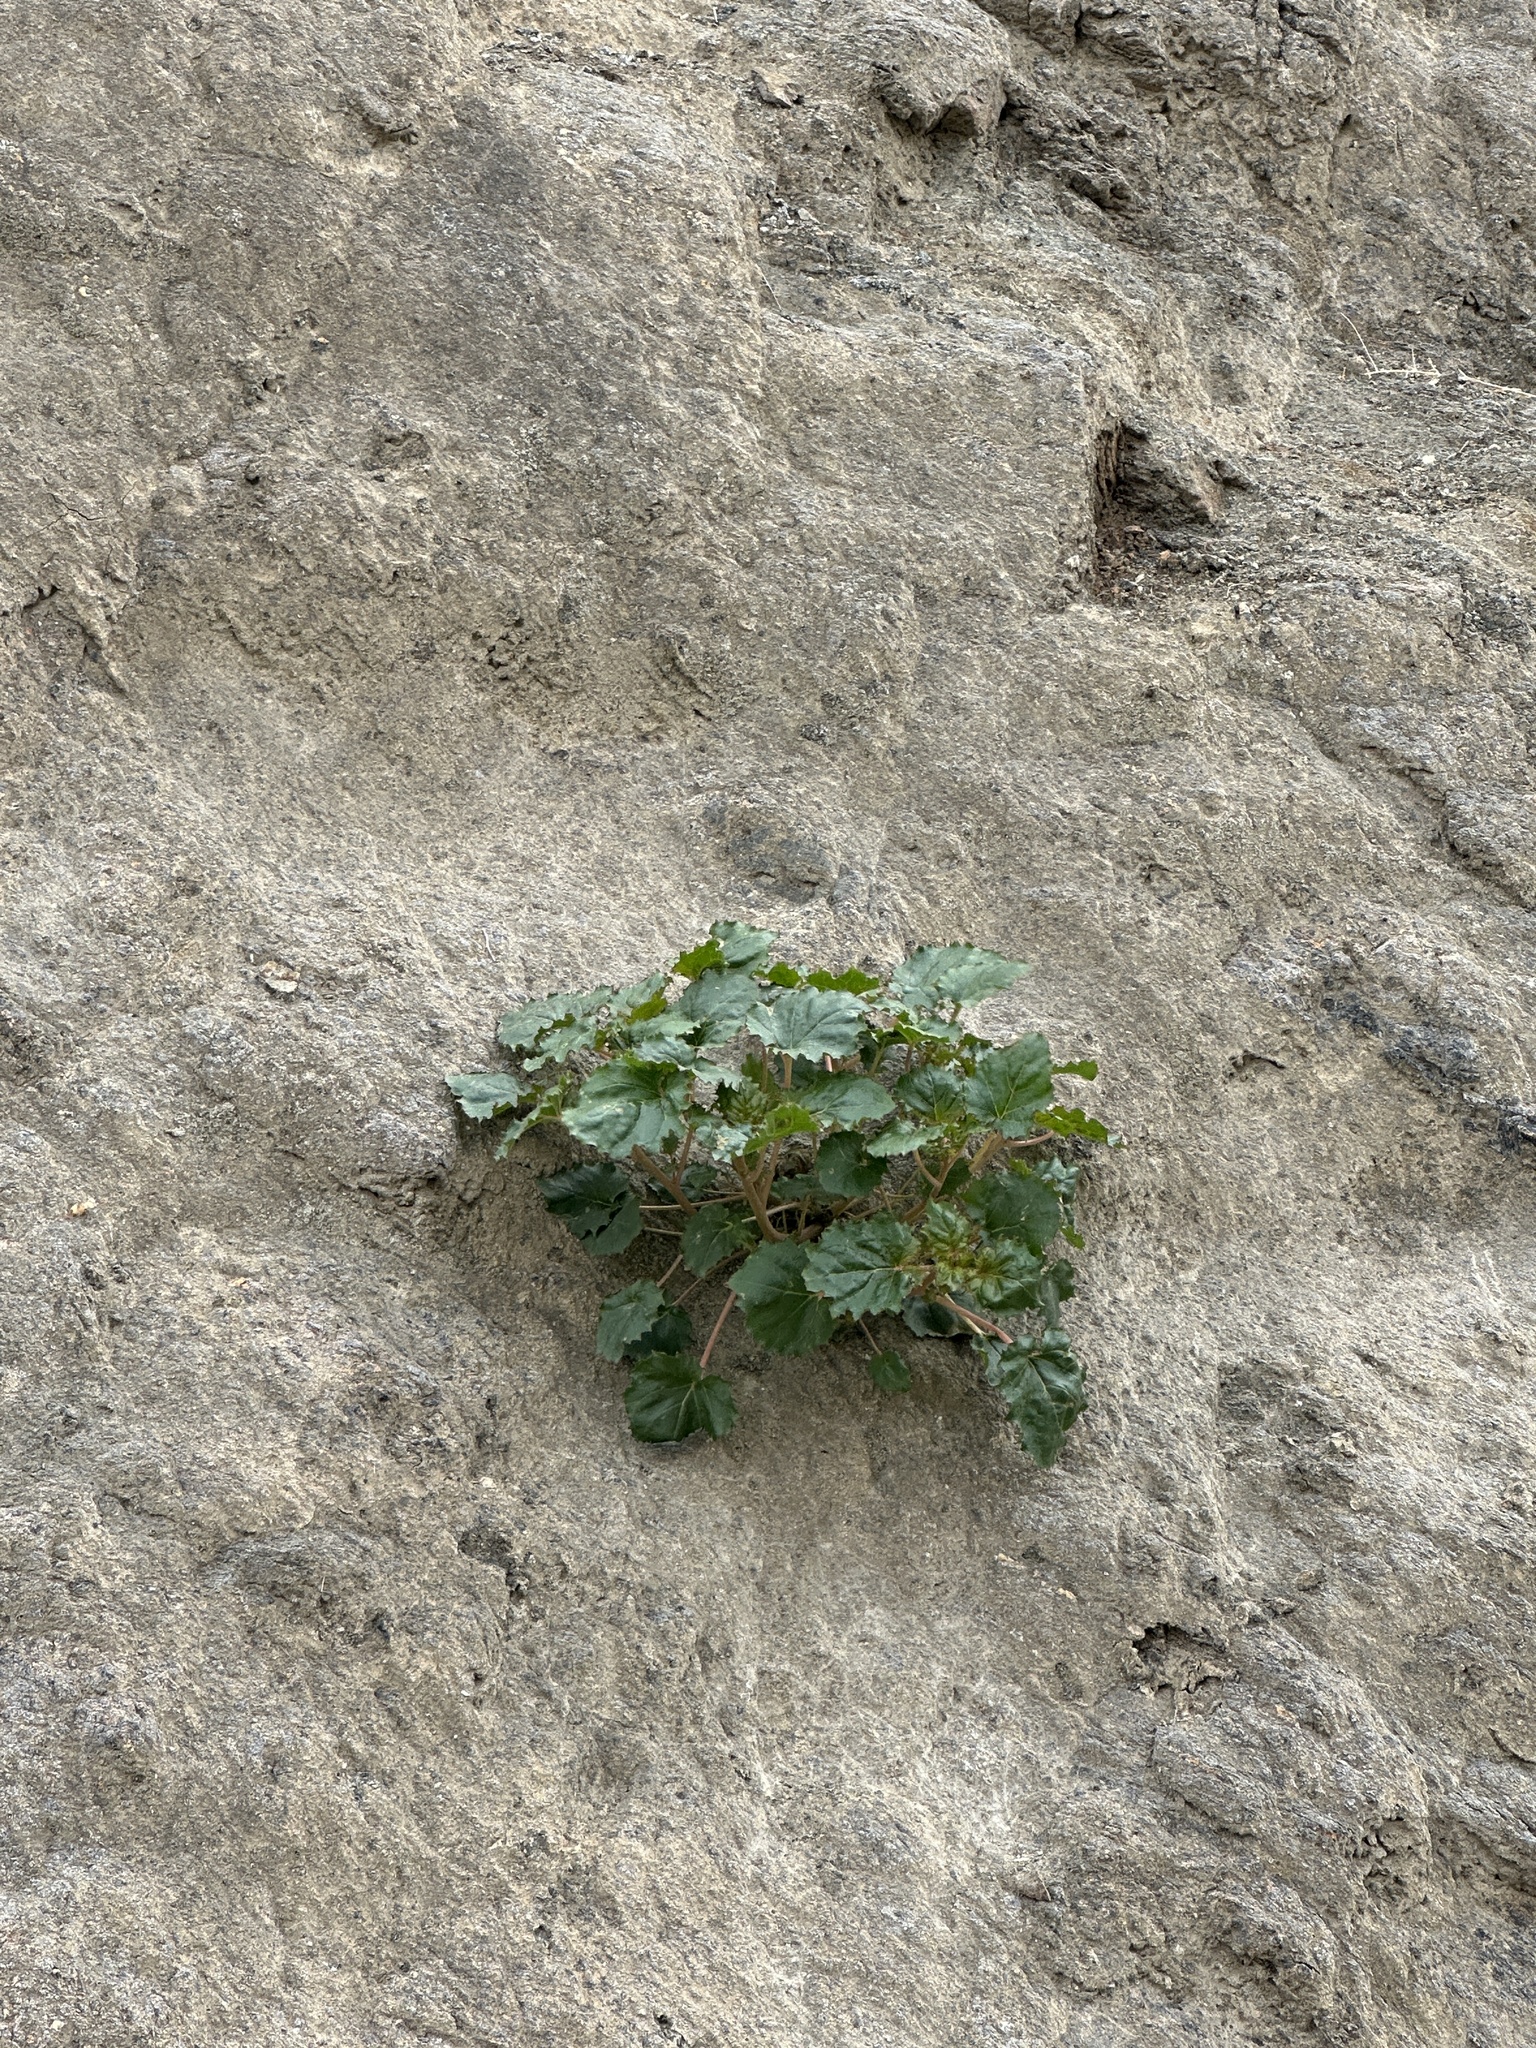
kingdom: Plantae
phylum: Tracheophyta
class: Magnoliopsida
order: Myrtales
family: Onagraceae
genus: Chylismia
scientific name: Chylismia cardiophylla
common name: Heartleaf suncup
